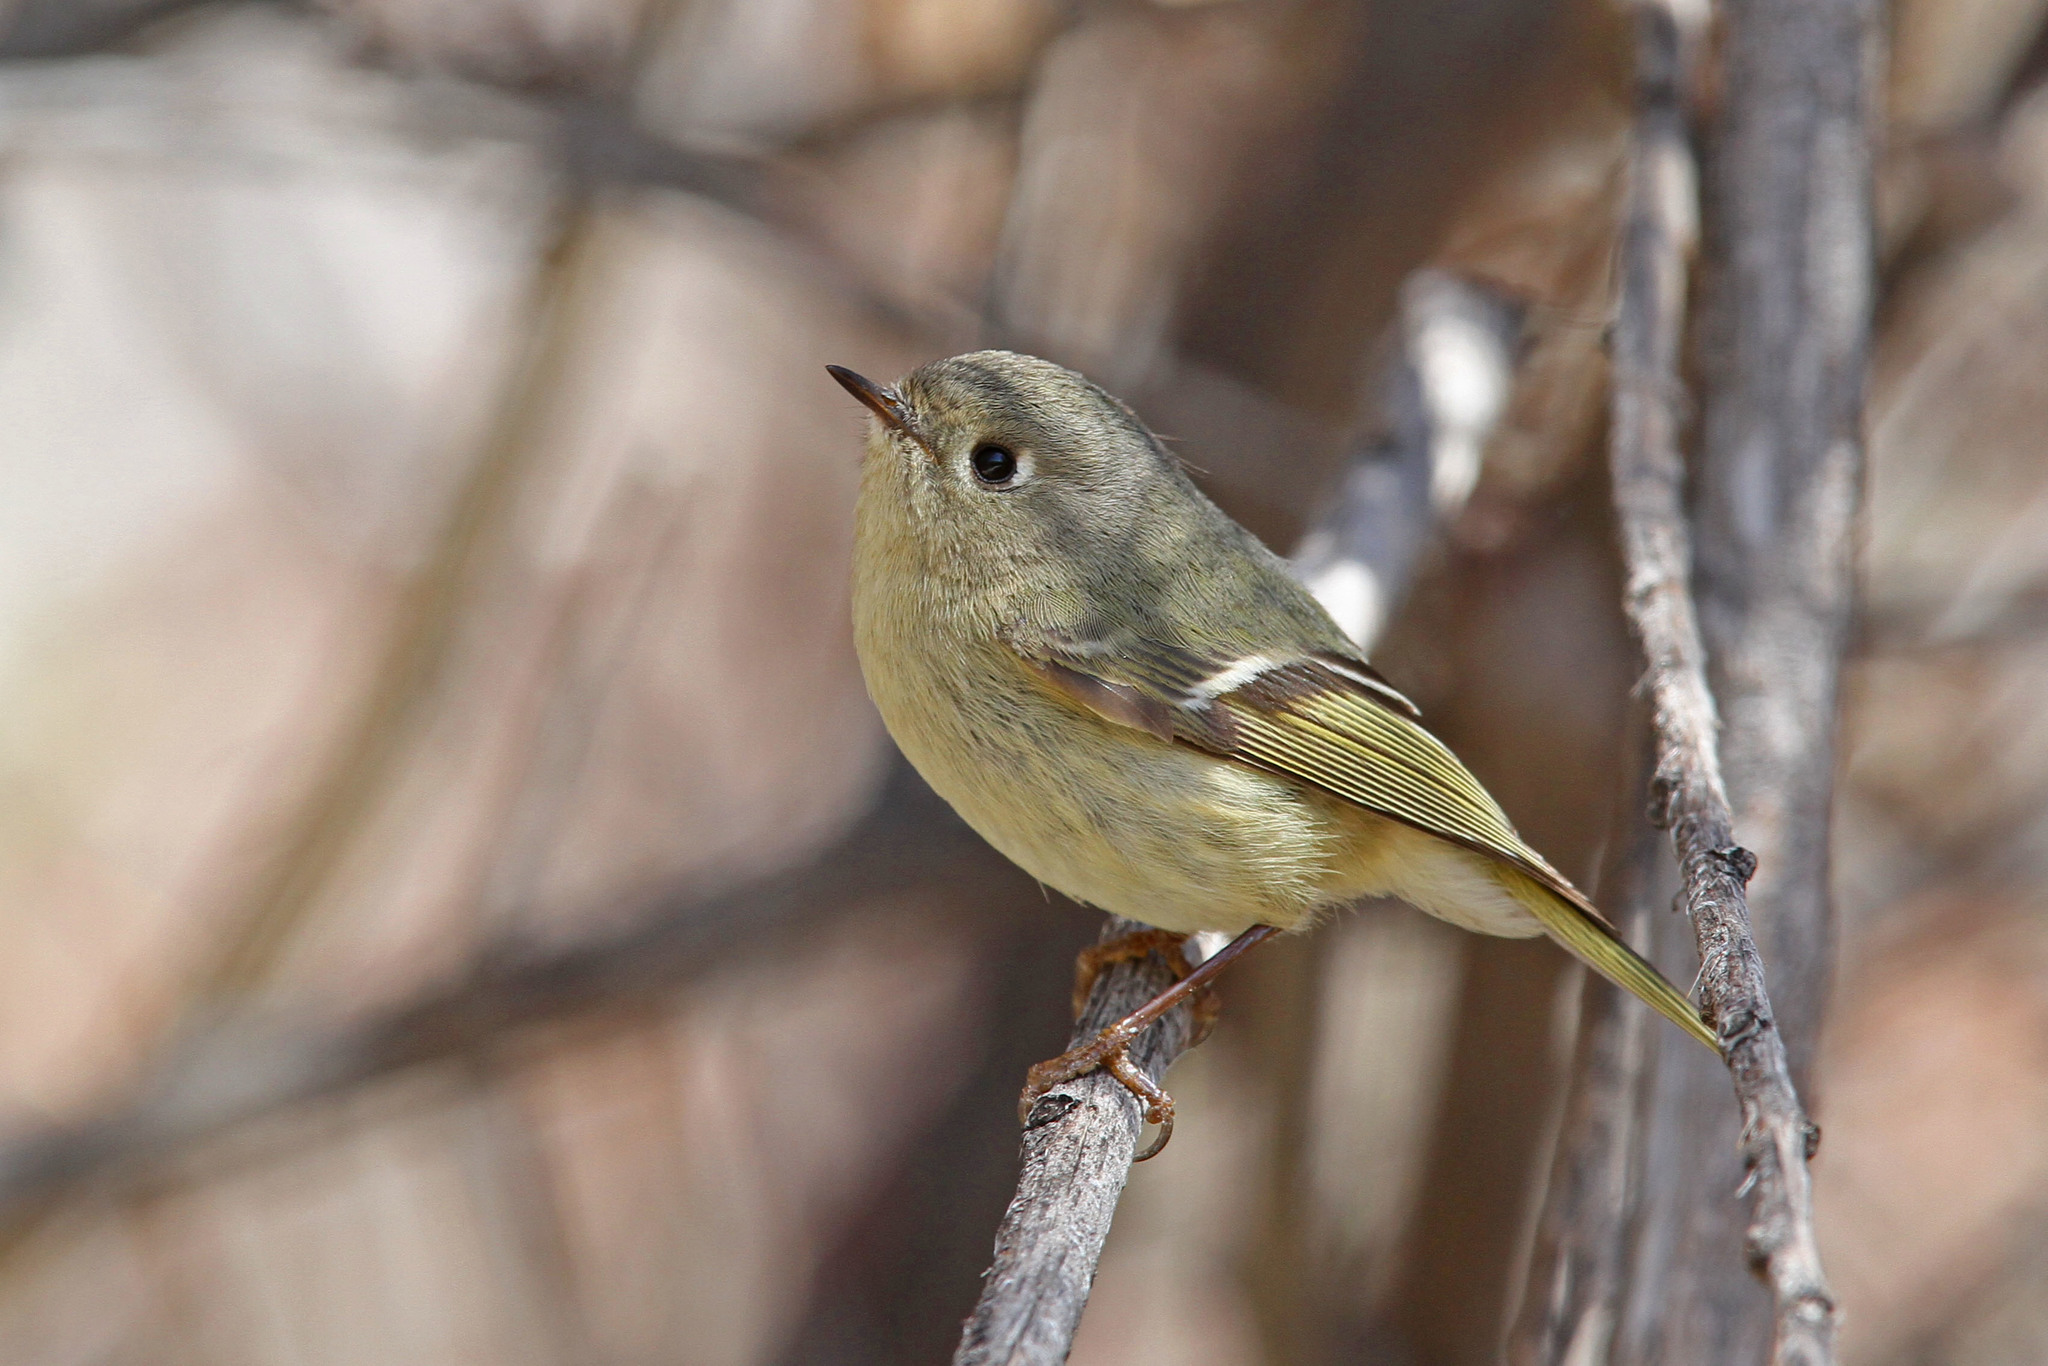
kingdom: Animalia
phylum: Chordata
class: Aves
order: Passeriformes
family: Regulidae
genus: Regulus
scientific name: Regulus calendula
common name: Ruby-crowned kinglet
